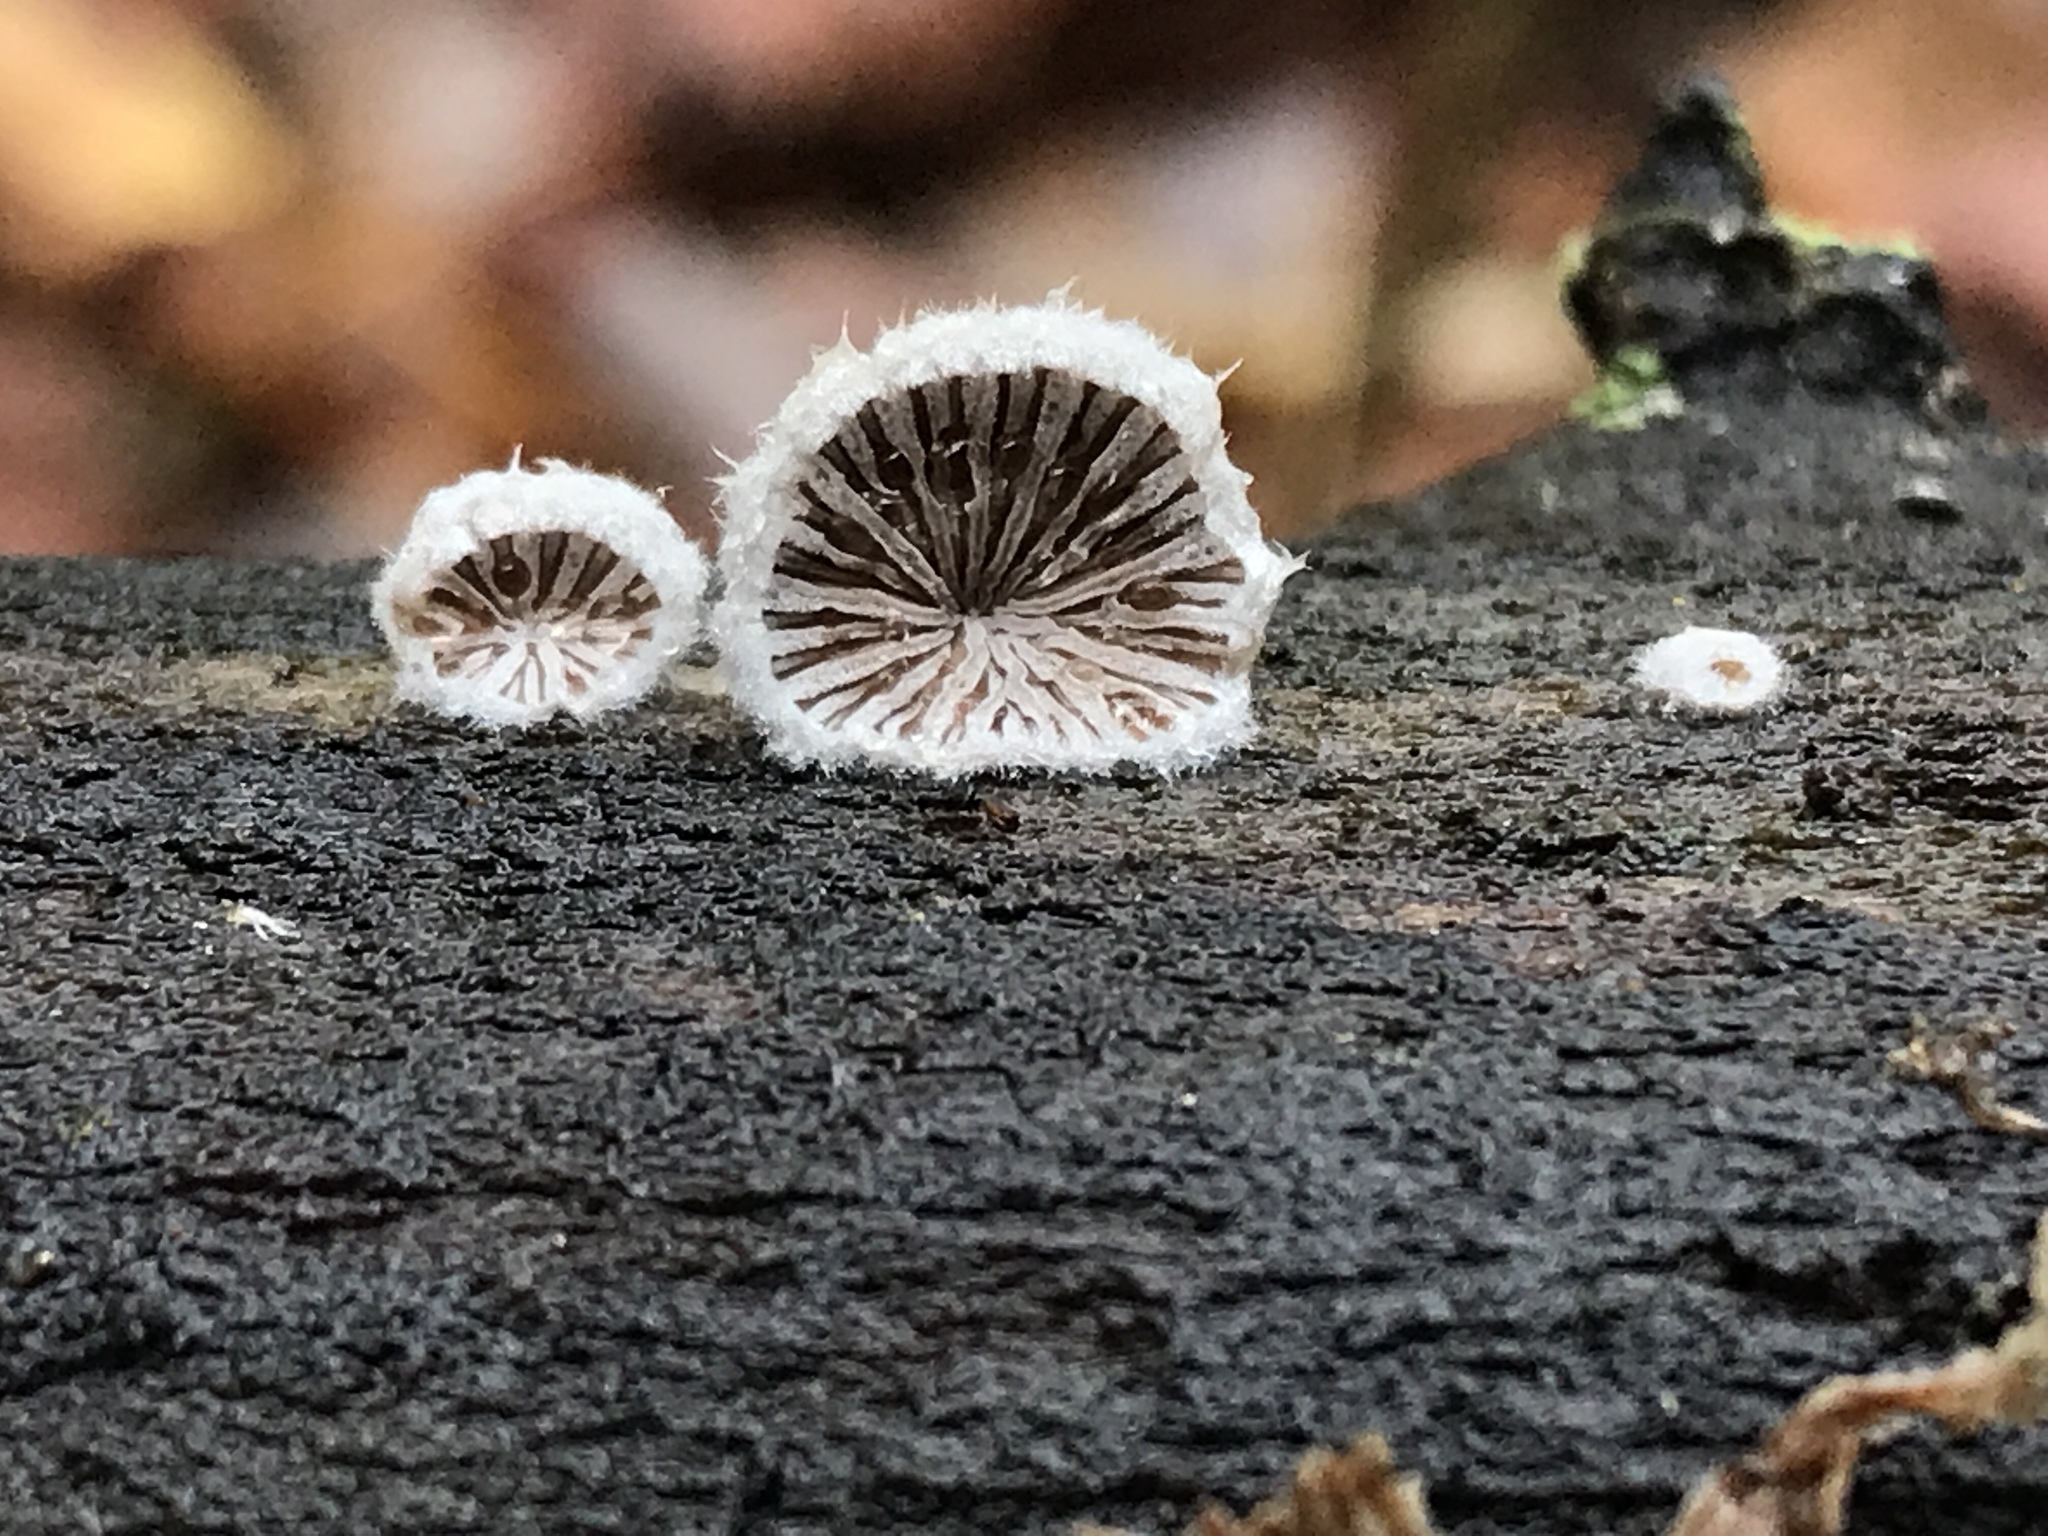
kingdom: Fungi
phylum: Basidiomycota
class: Agaricomycetes
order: Agaricales
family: Schizophyllaceae
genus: Schizophyllum
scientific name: Schizophyllum commune
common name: Common porecrust
